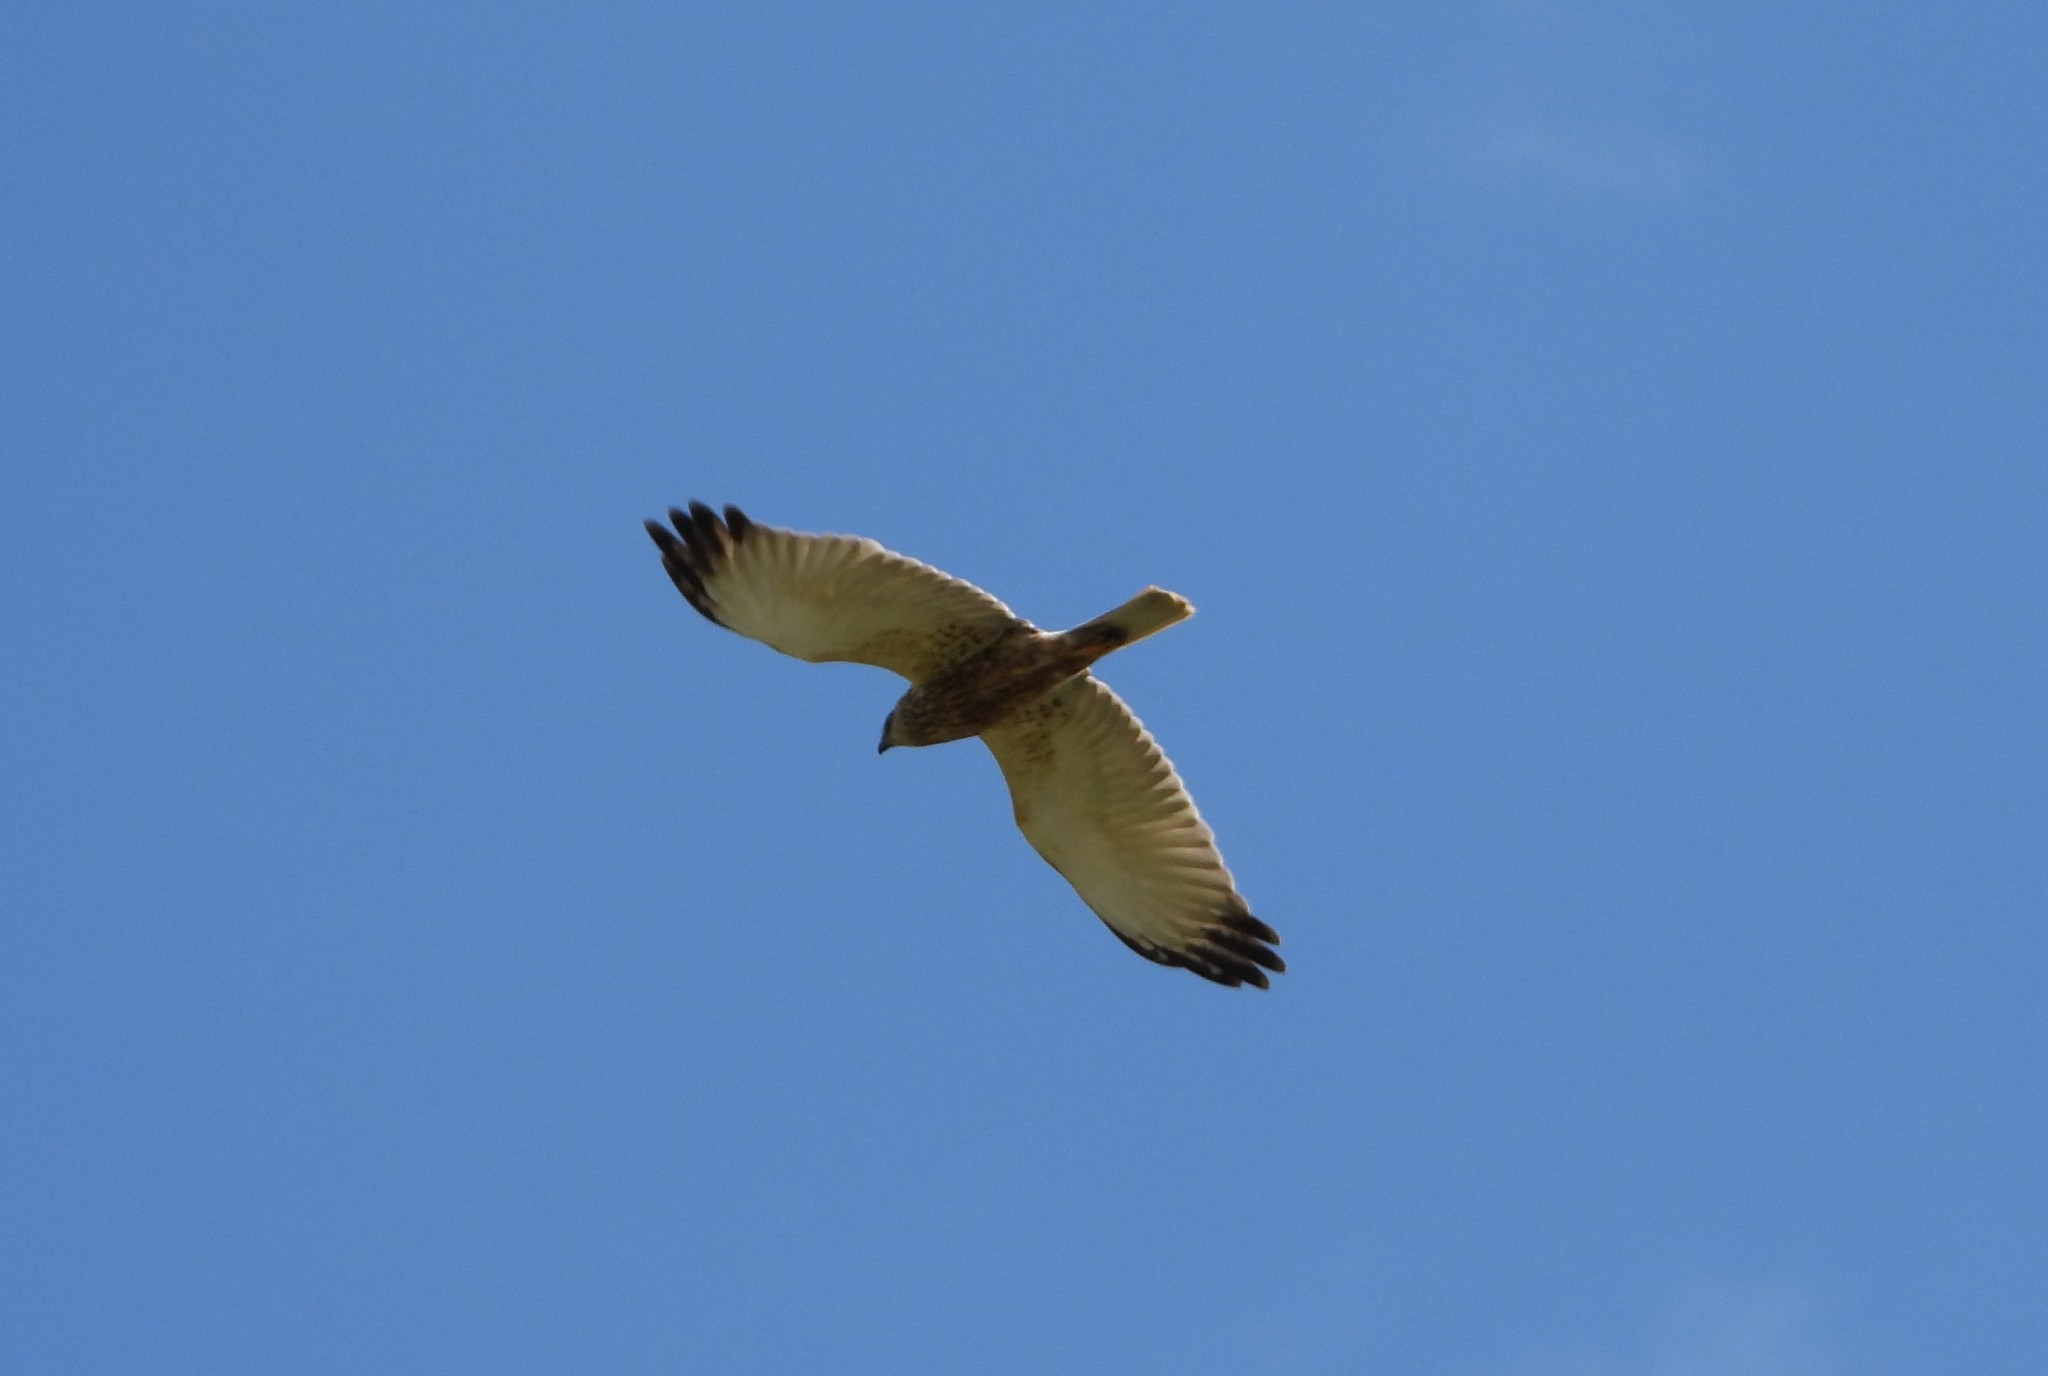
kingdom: Animalia
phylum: Chordata
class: Aves
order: Accipitriformes
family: Accipitridae
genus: Circus
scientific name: Circus aeruginosus
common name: Western marsh harrier
